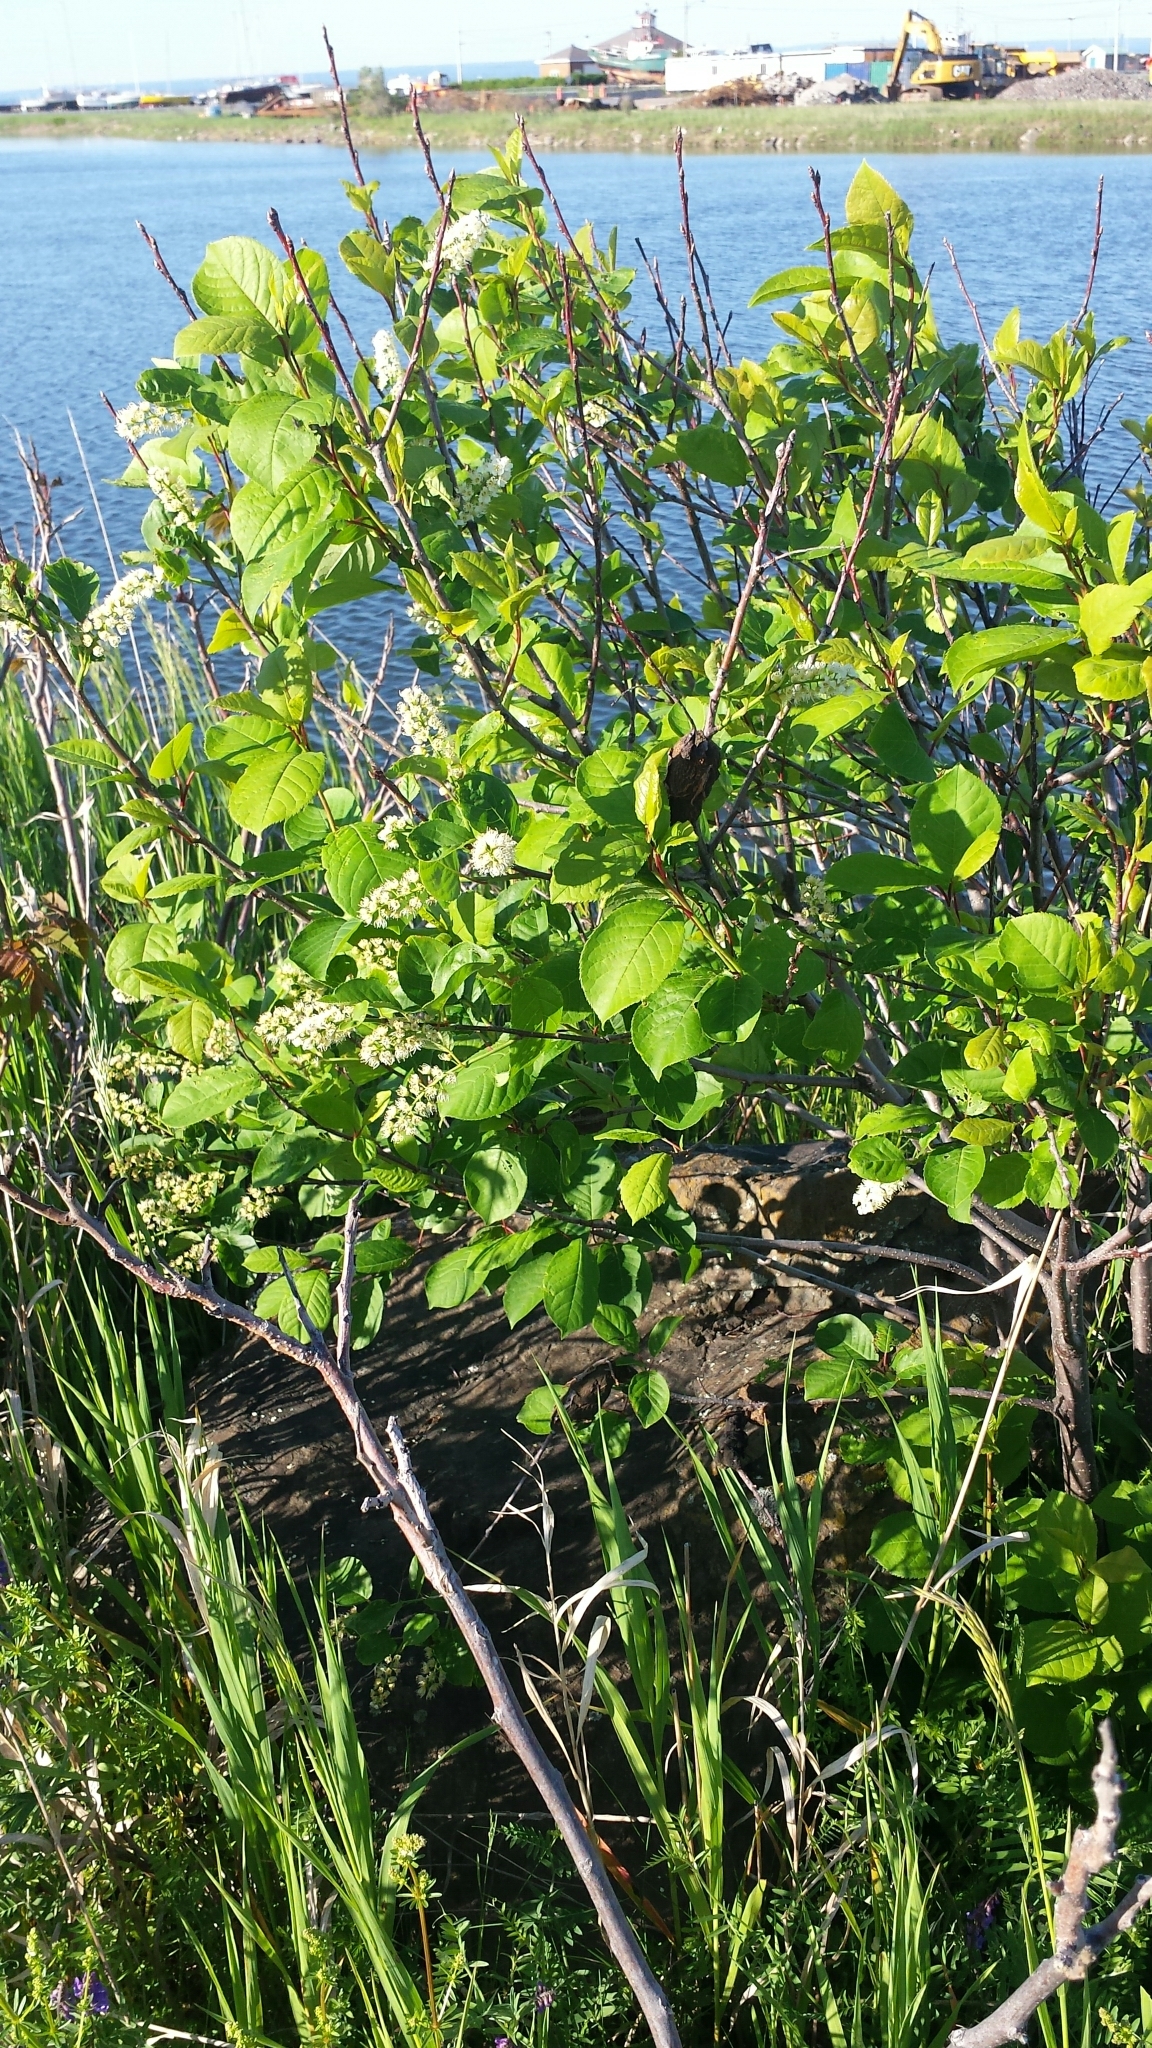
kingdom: Plantae
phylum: Tracheophyta
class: Magnoliopsida
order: Rosales
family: Rosaceae
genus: Prunus
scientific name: Prunus virginiana
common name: Chokecherry
